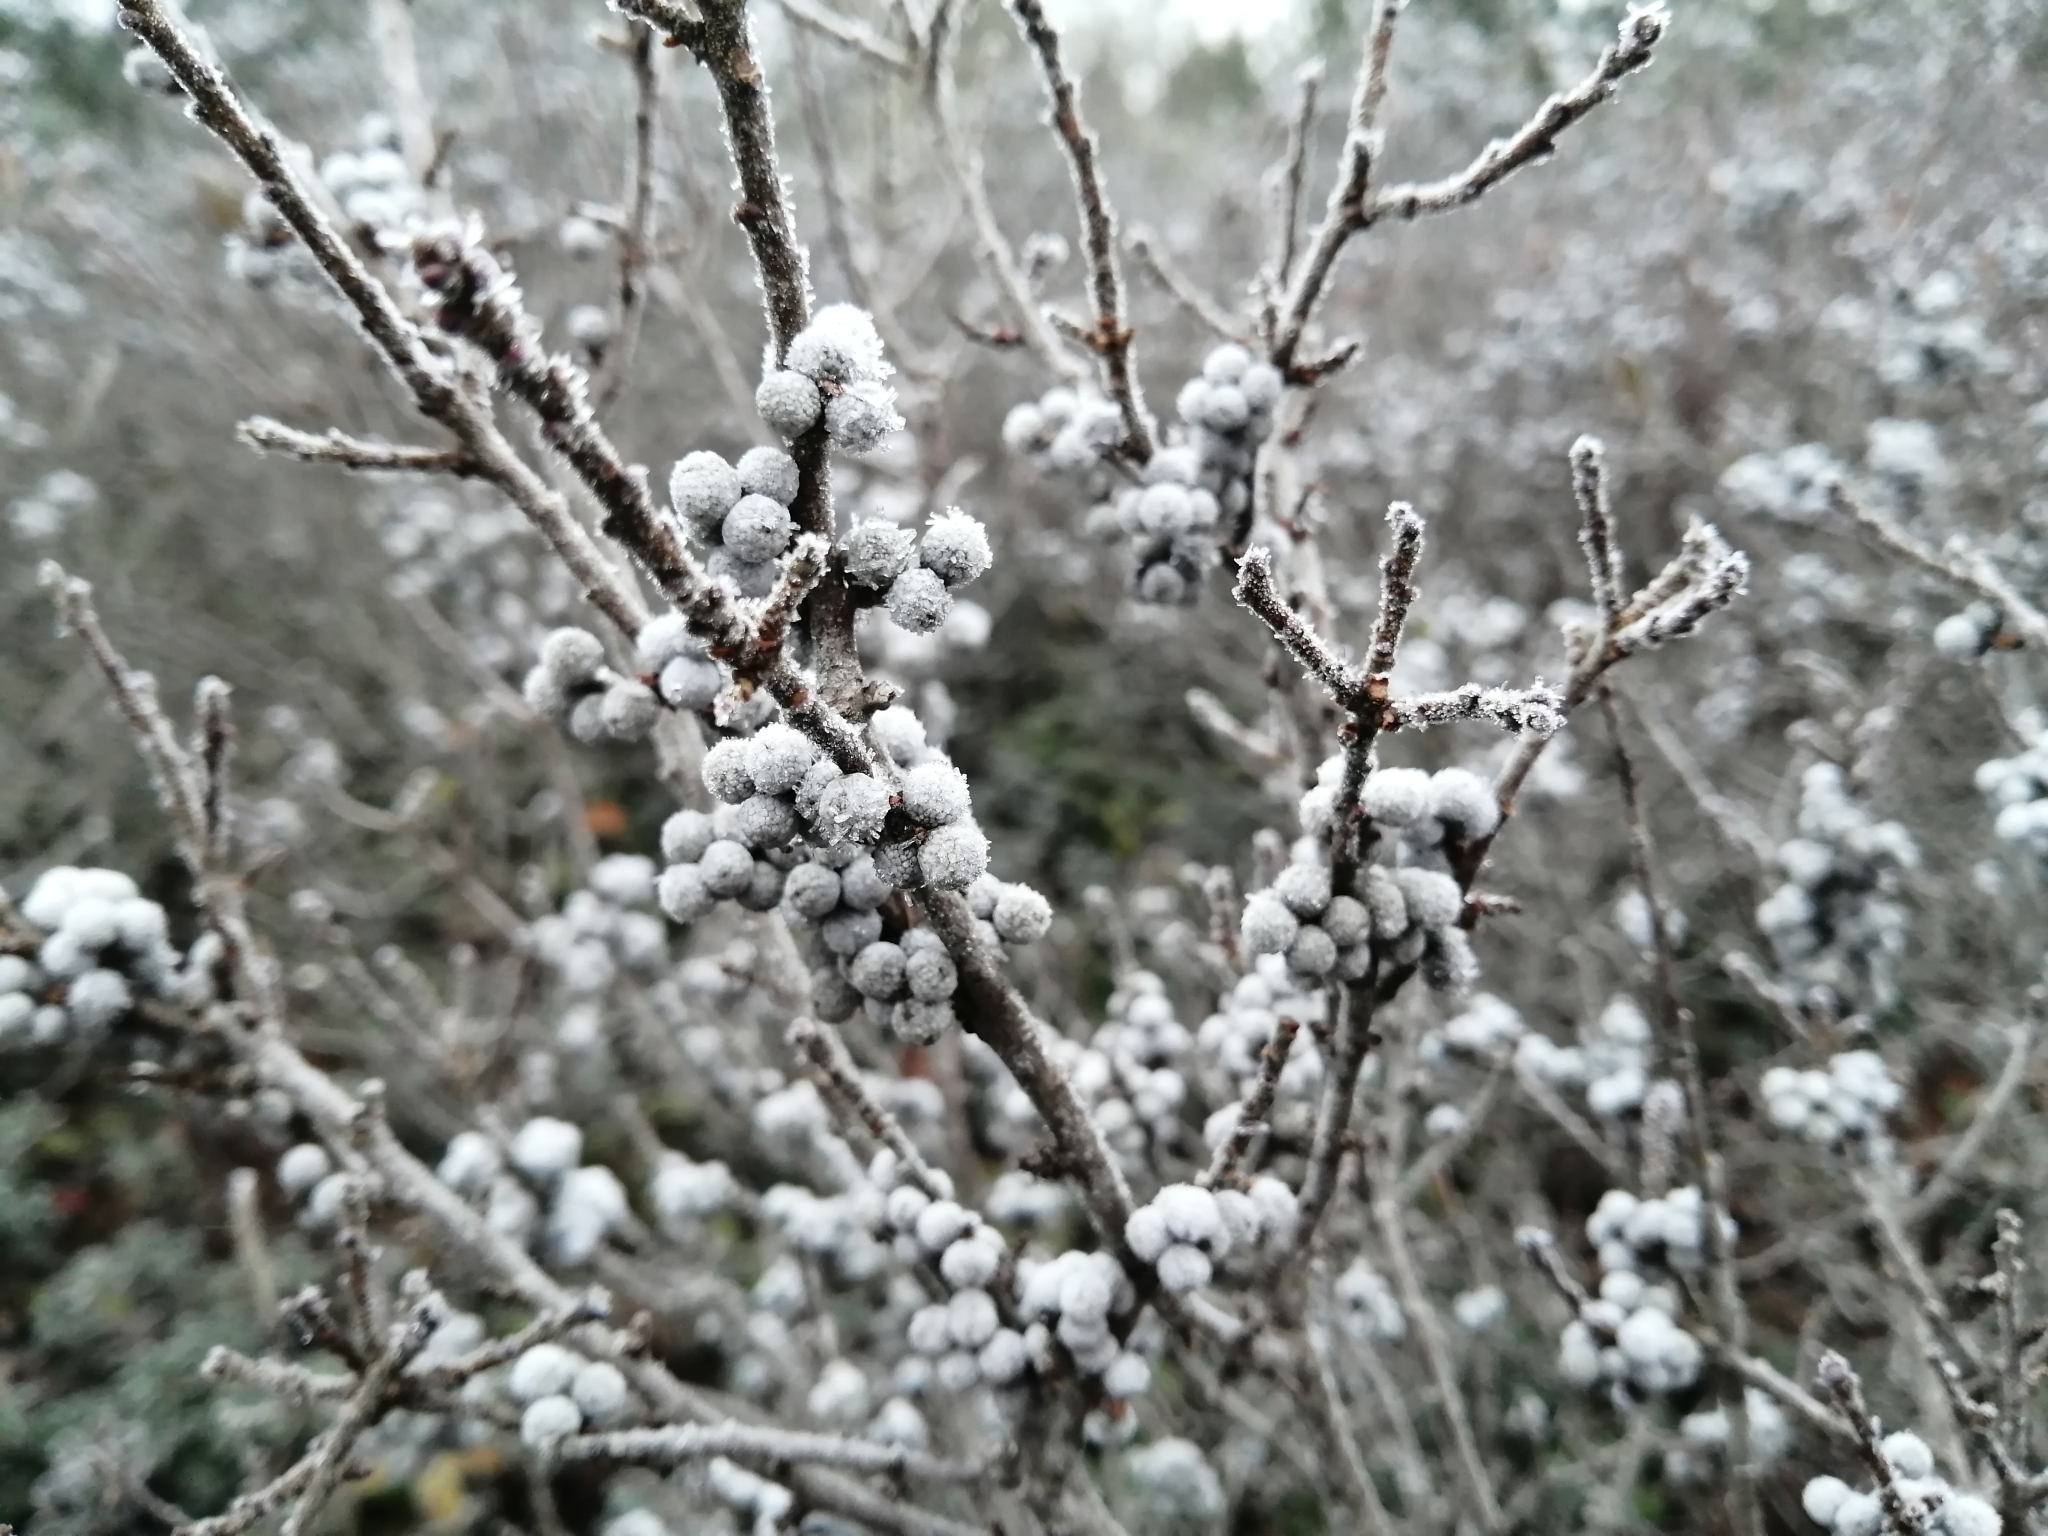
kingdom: Plantae
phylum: Tracheophyta
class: Magnoliopsida
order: Fagales
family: Myricaceae
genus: Morella
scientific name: Morella pensylvanica
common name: Northern bayberry
